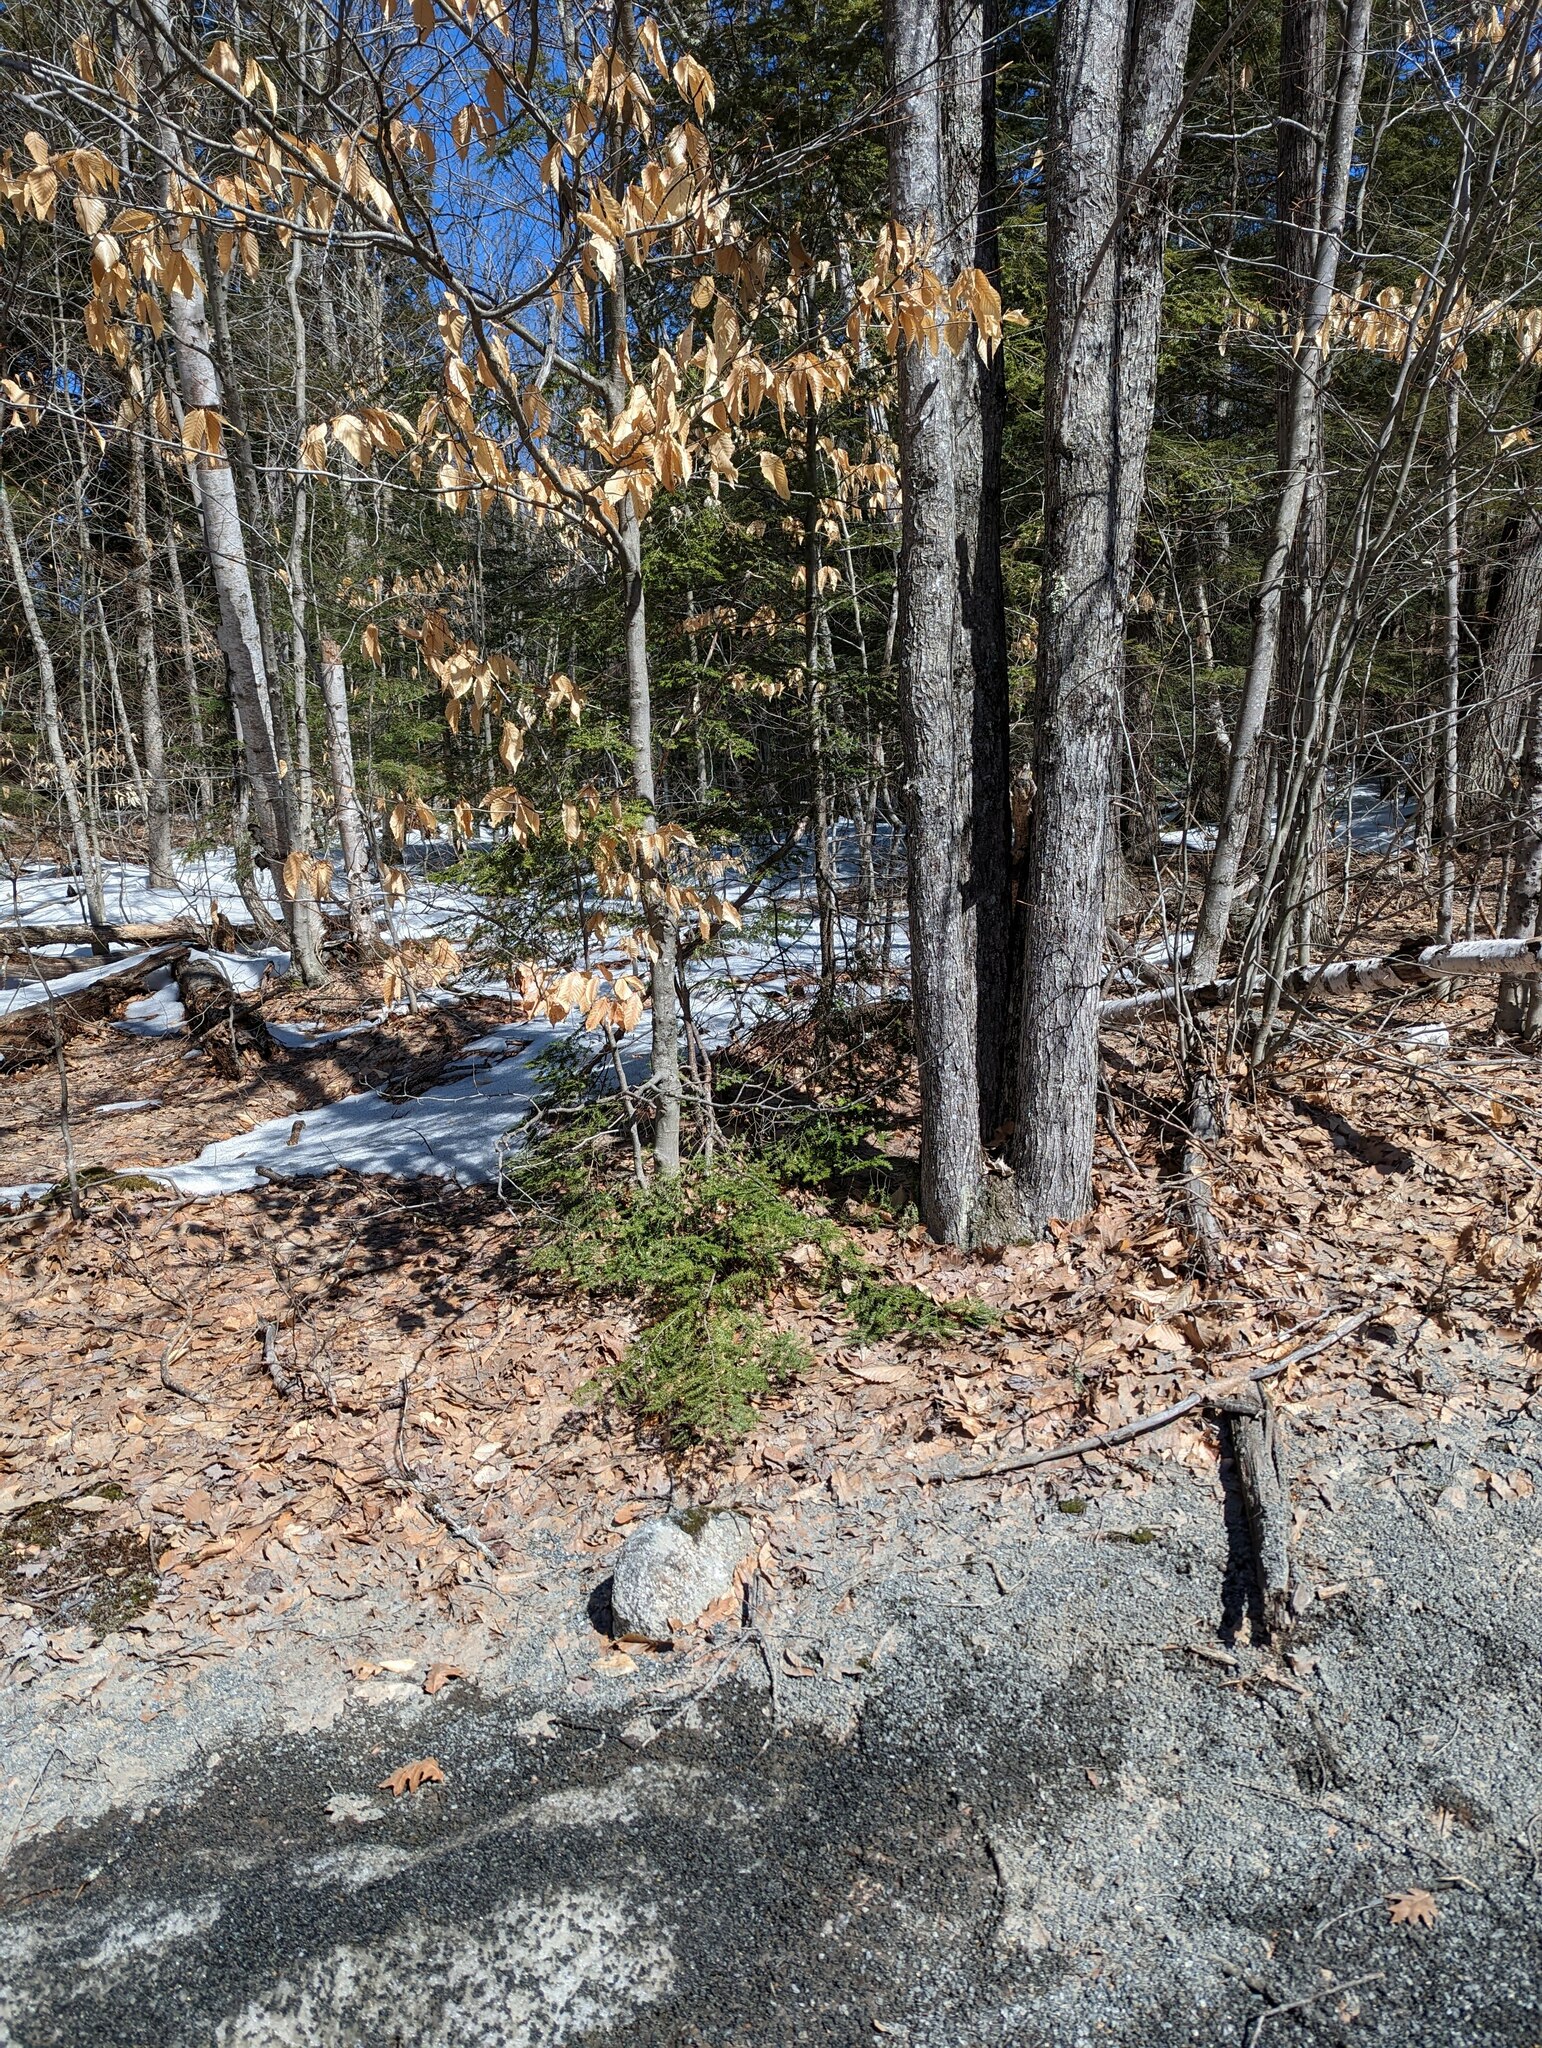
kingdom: Plantae
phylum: Tracheophyta
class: Pinopsida
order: Pinales
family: Pinaceae
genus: Tsuga
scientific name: Tsuga canadensis
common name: Eastern hemlock
